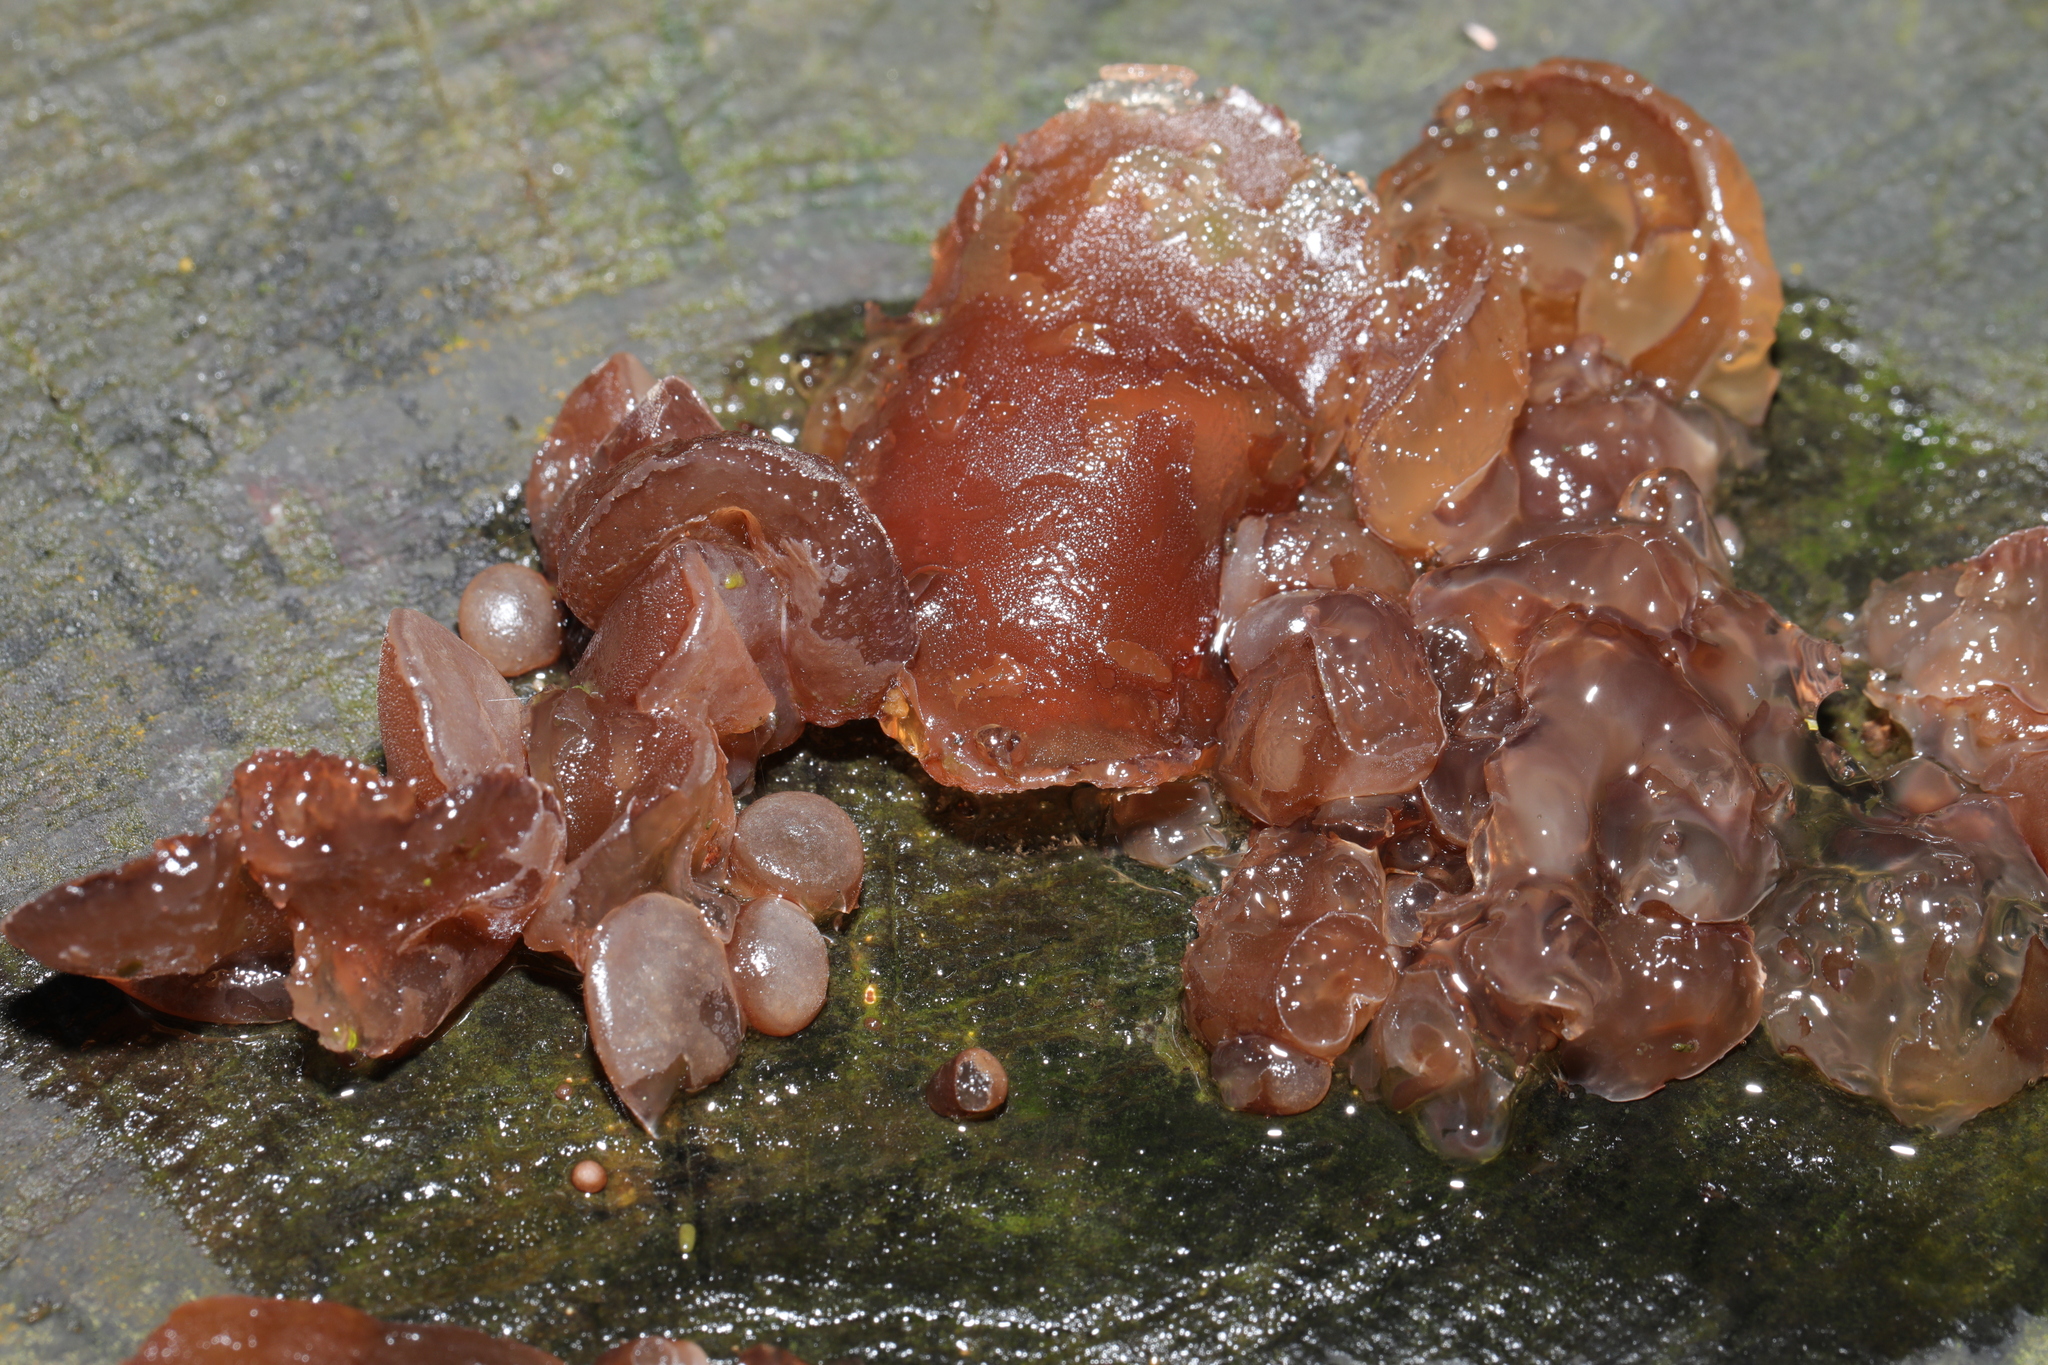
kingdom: Fungi
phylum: Basidiomycota
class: Agaricomycetes
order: Auriculariales
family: Auriculariaceae
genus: Auricularia
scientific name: Auricularia auricula-judae
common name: Jelly ear
